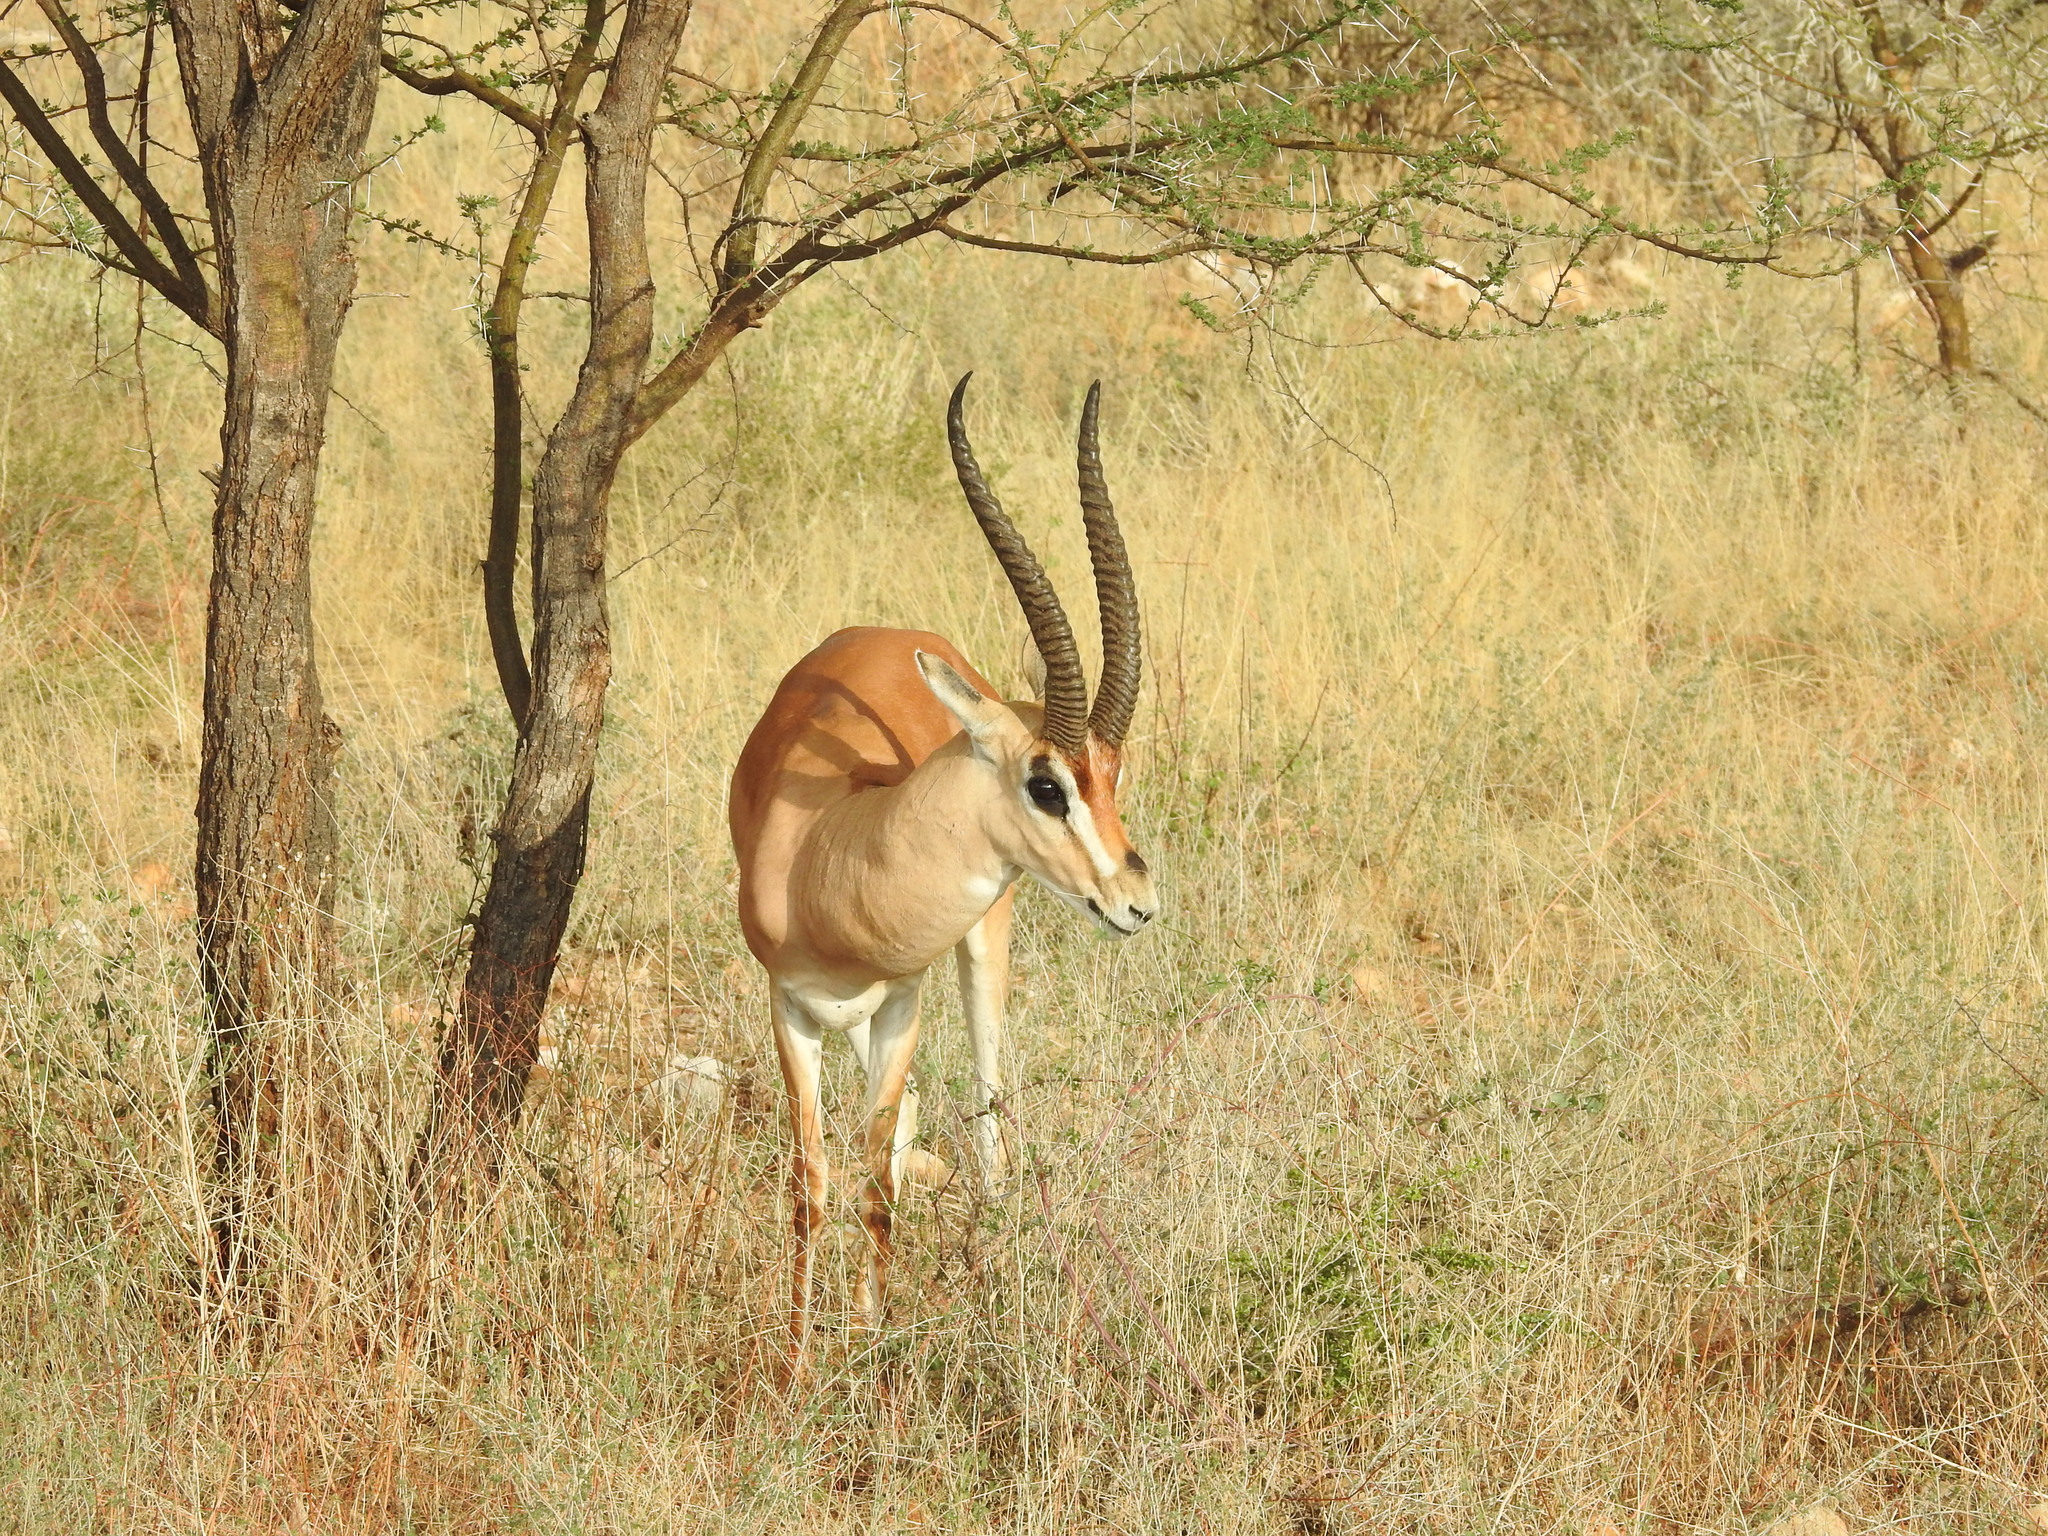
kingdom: Animalia
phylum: Chordata
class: Mammalia
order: Artiodactyla
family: Bovidae
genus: Nanger
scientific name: Nanger granti
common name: Grant's gazelle
